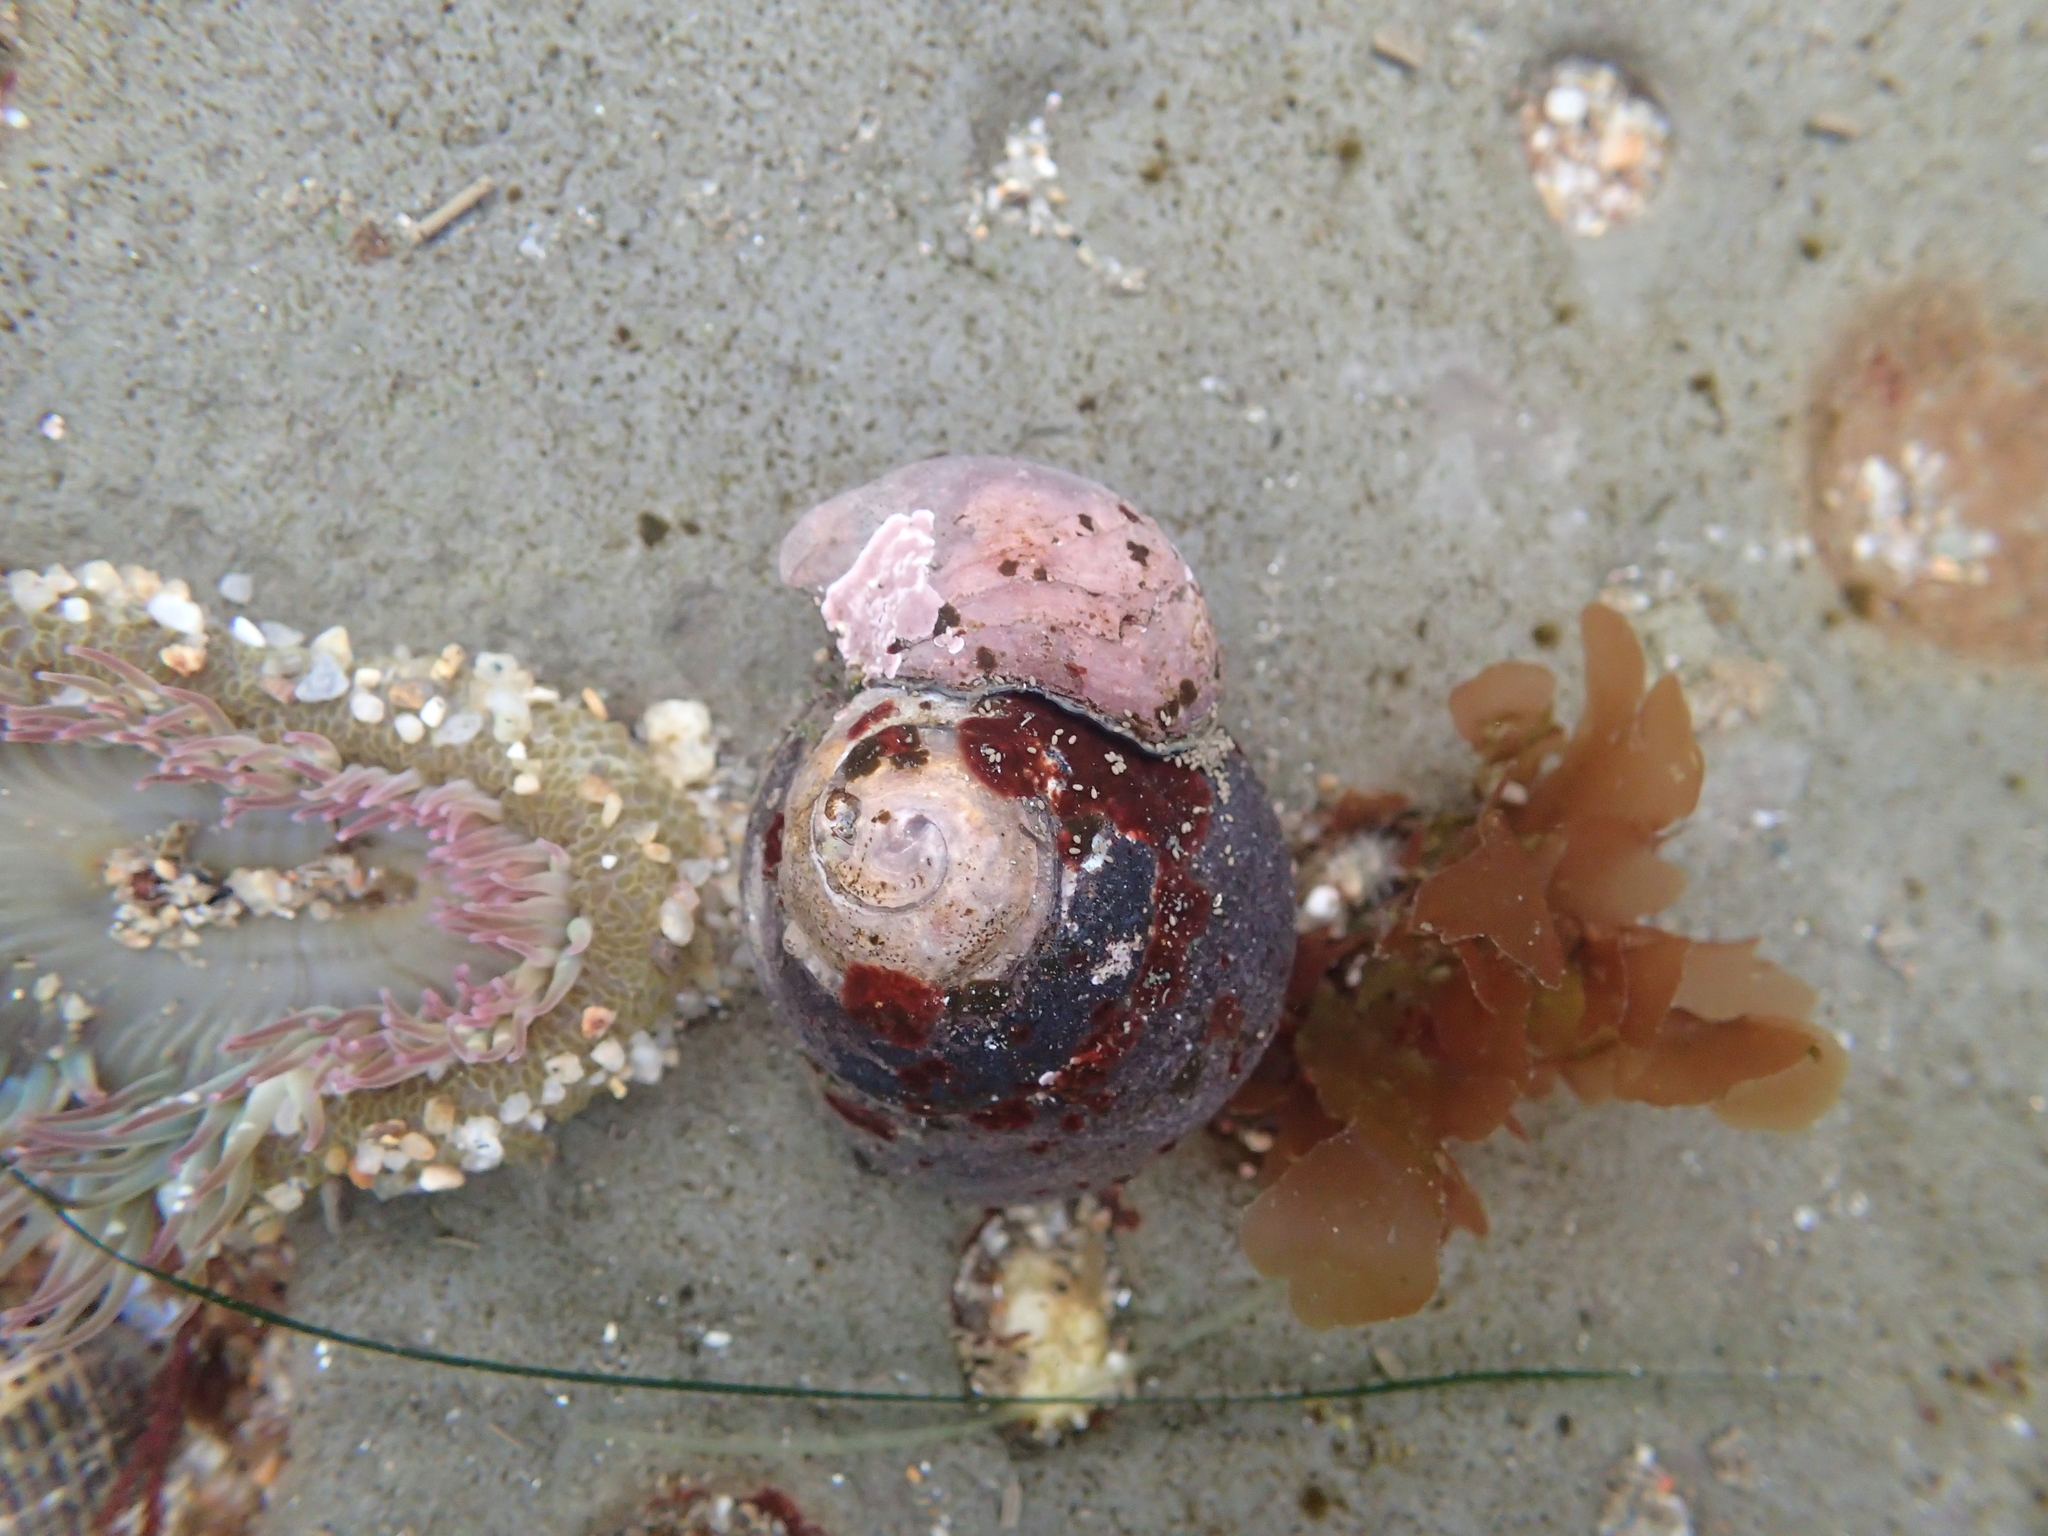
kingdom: Animalia
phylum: Mollusca
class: Gastropoda
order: Trochida
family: Tegulidae
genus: Tegula
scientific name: Tegula funebralis
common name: Black tegula
